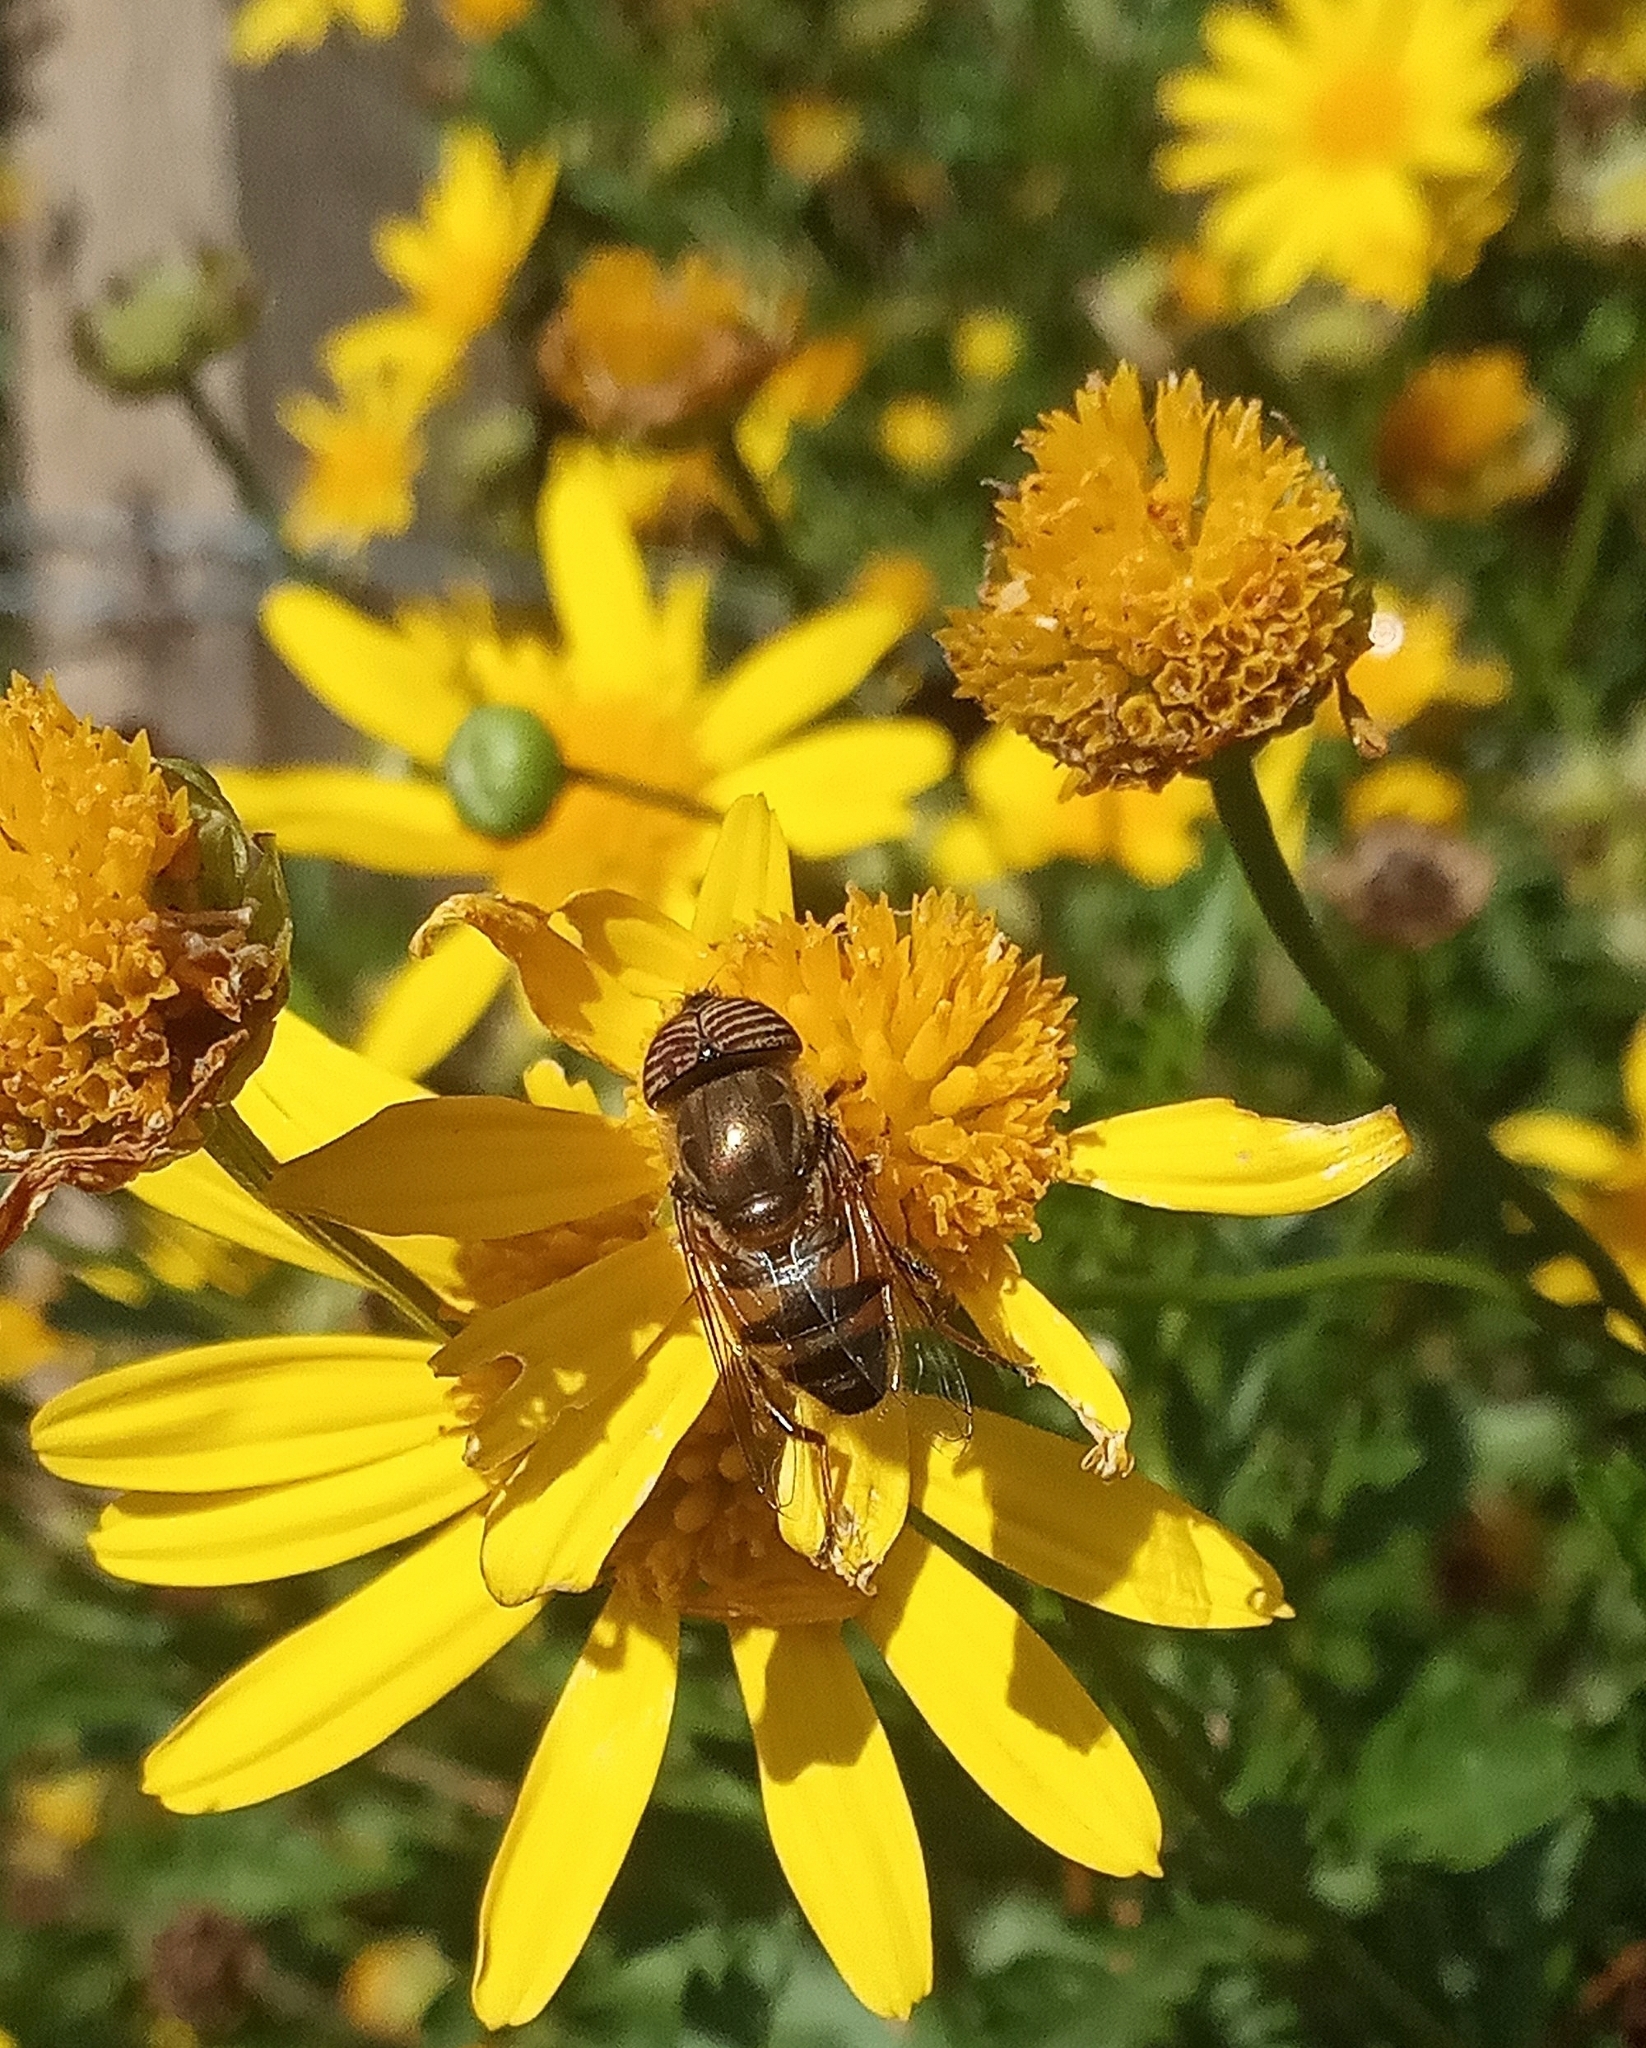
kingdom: Animalia
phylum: Arthropoda
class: Insecta
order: Diptera
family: Syrphidae
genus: Eristalinus
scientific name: Eristalinus taeniops
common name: Syrphid fly
